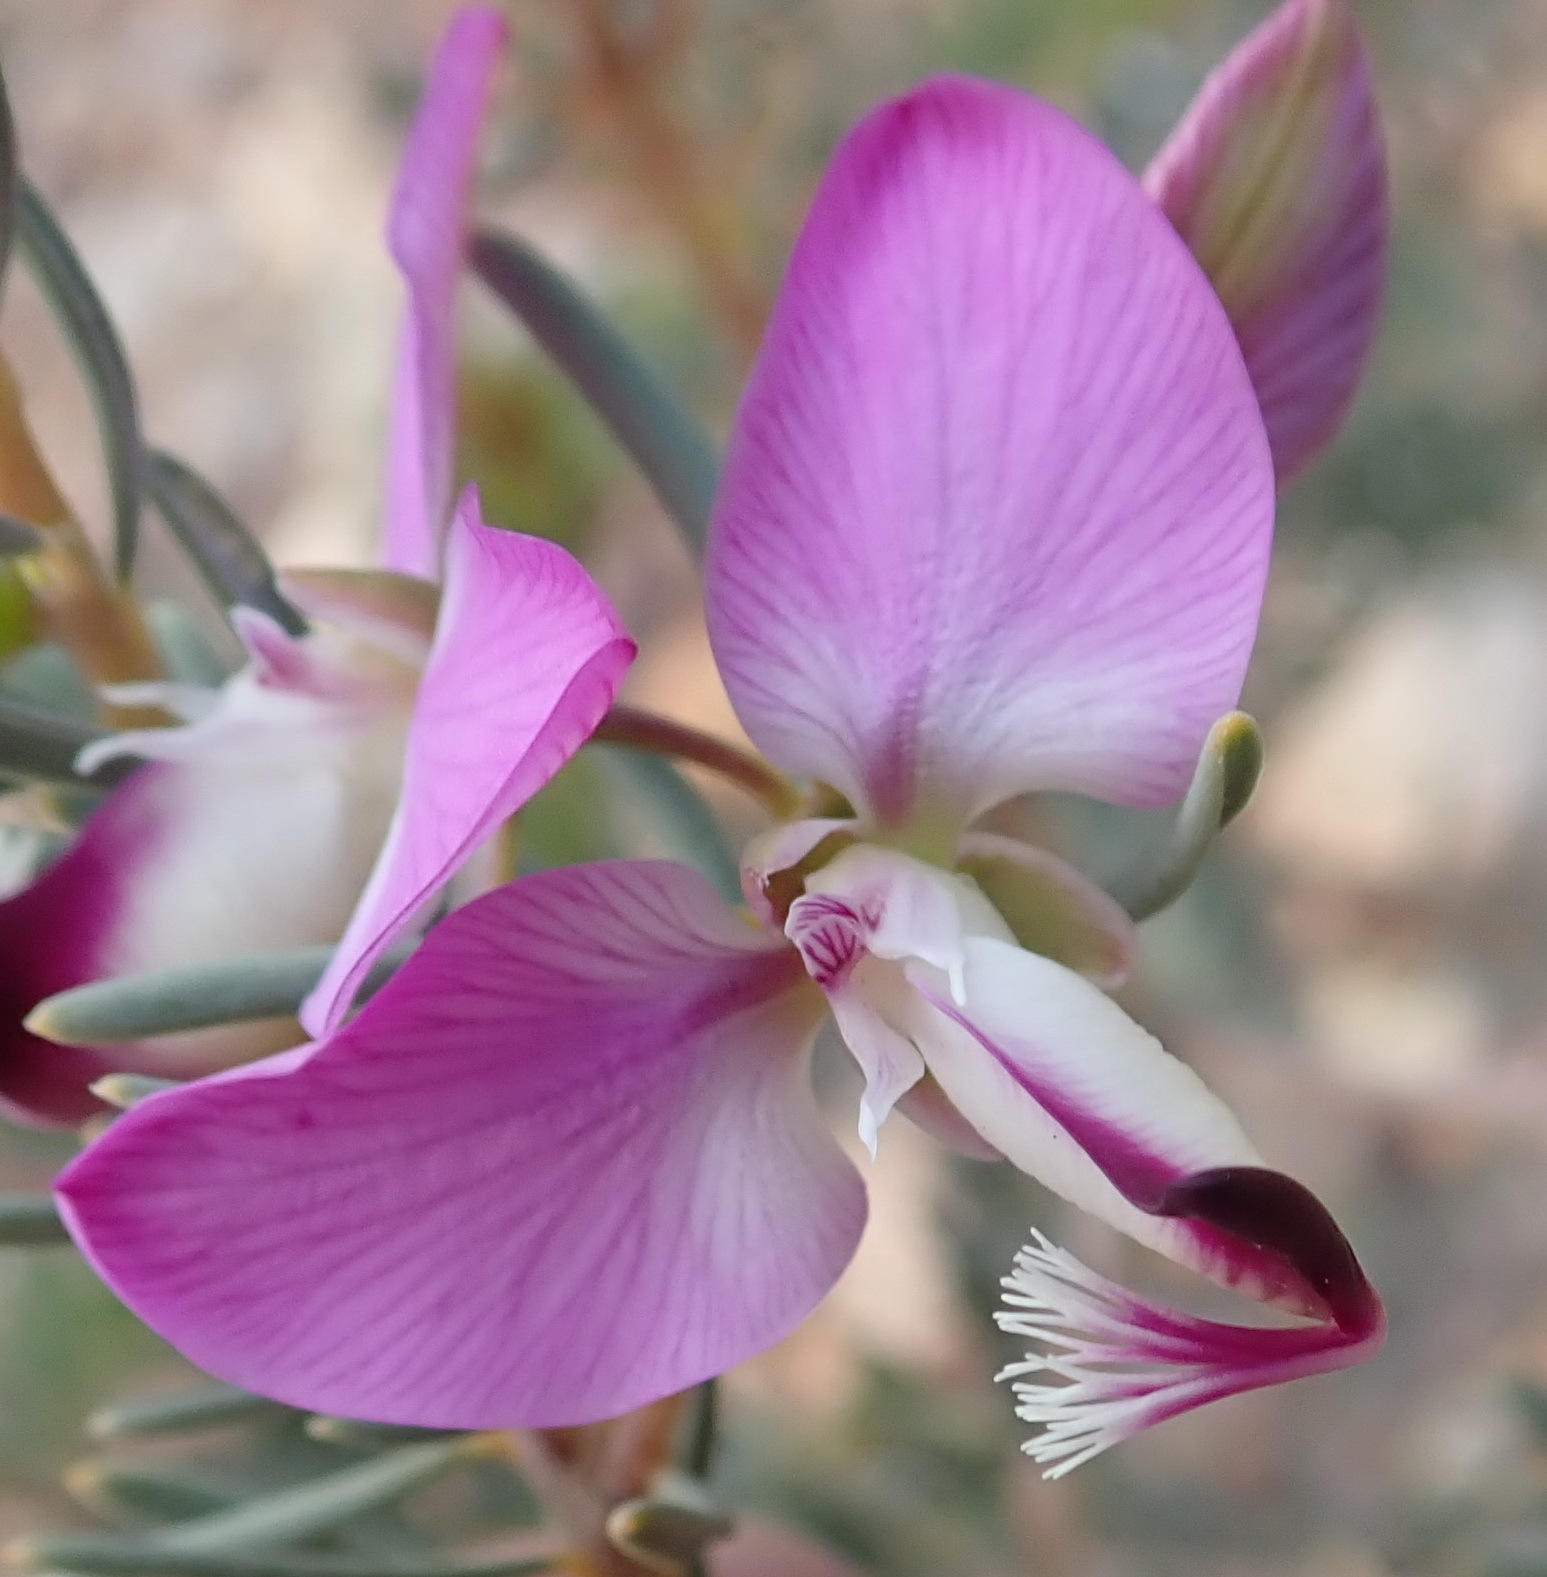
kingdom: Plantae
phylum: Tracheophyta
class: Magnoliopsida
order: Fabales
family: Polygalaceae
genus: Polygala
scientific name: Polygala myrtifolia
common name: Myrtle-leaf milkwort
